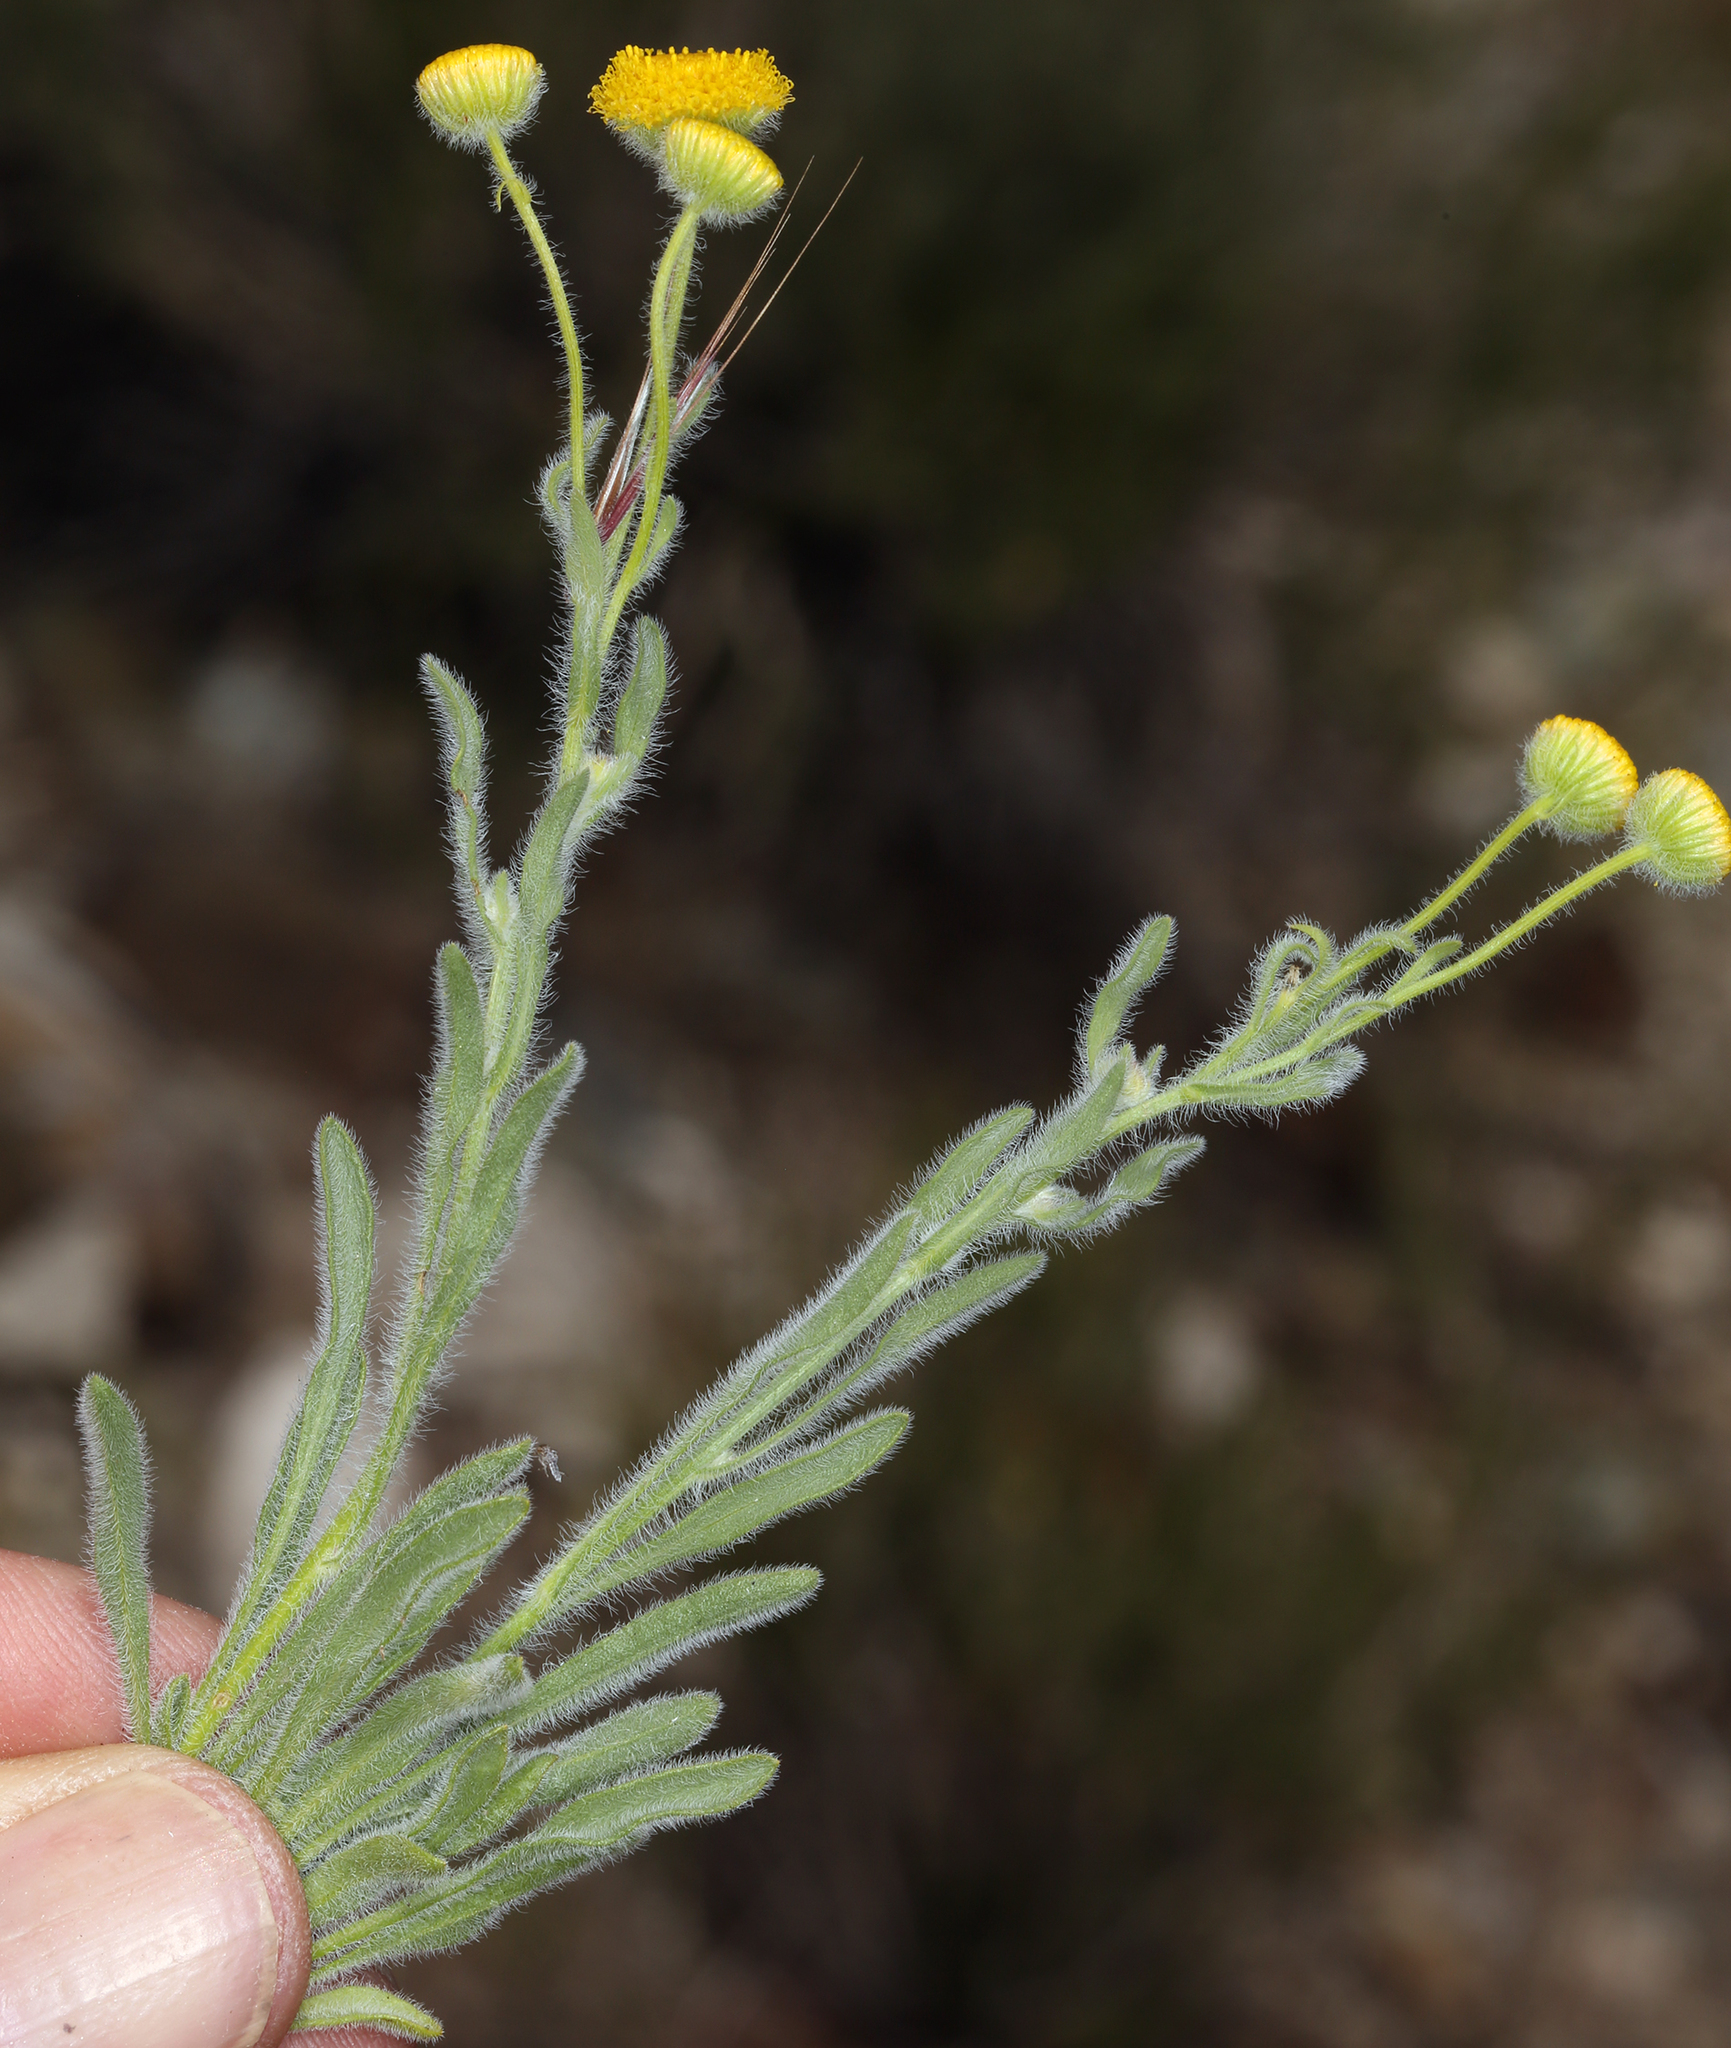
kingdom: Plantae
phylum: Tracheophyta
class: Magnoliopsida
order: Asterales
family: Asteraceae
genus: Erigeron
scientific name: Erigeron aphanactis
